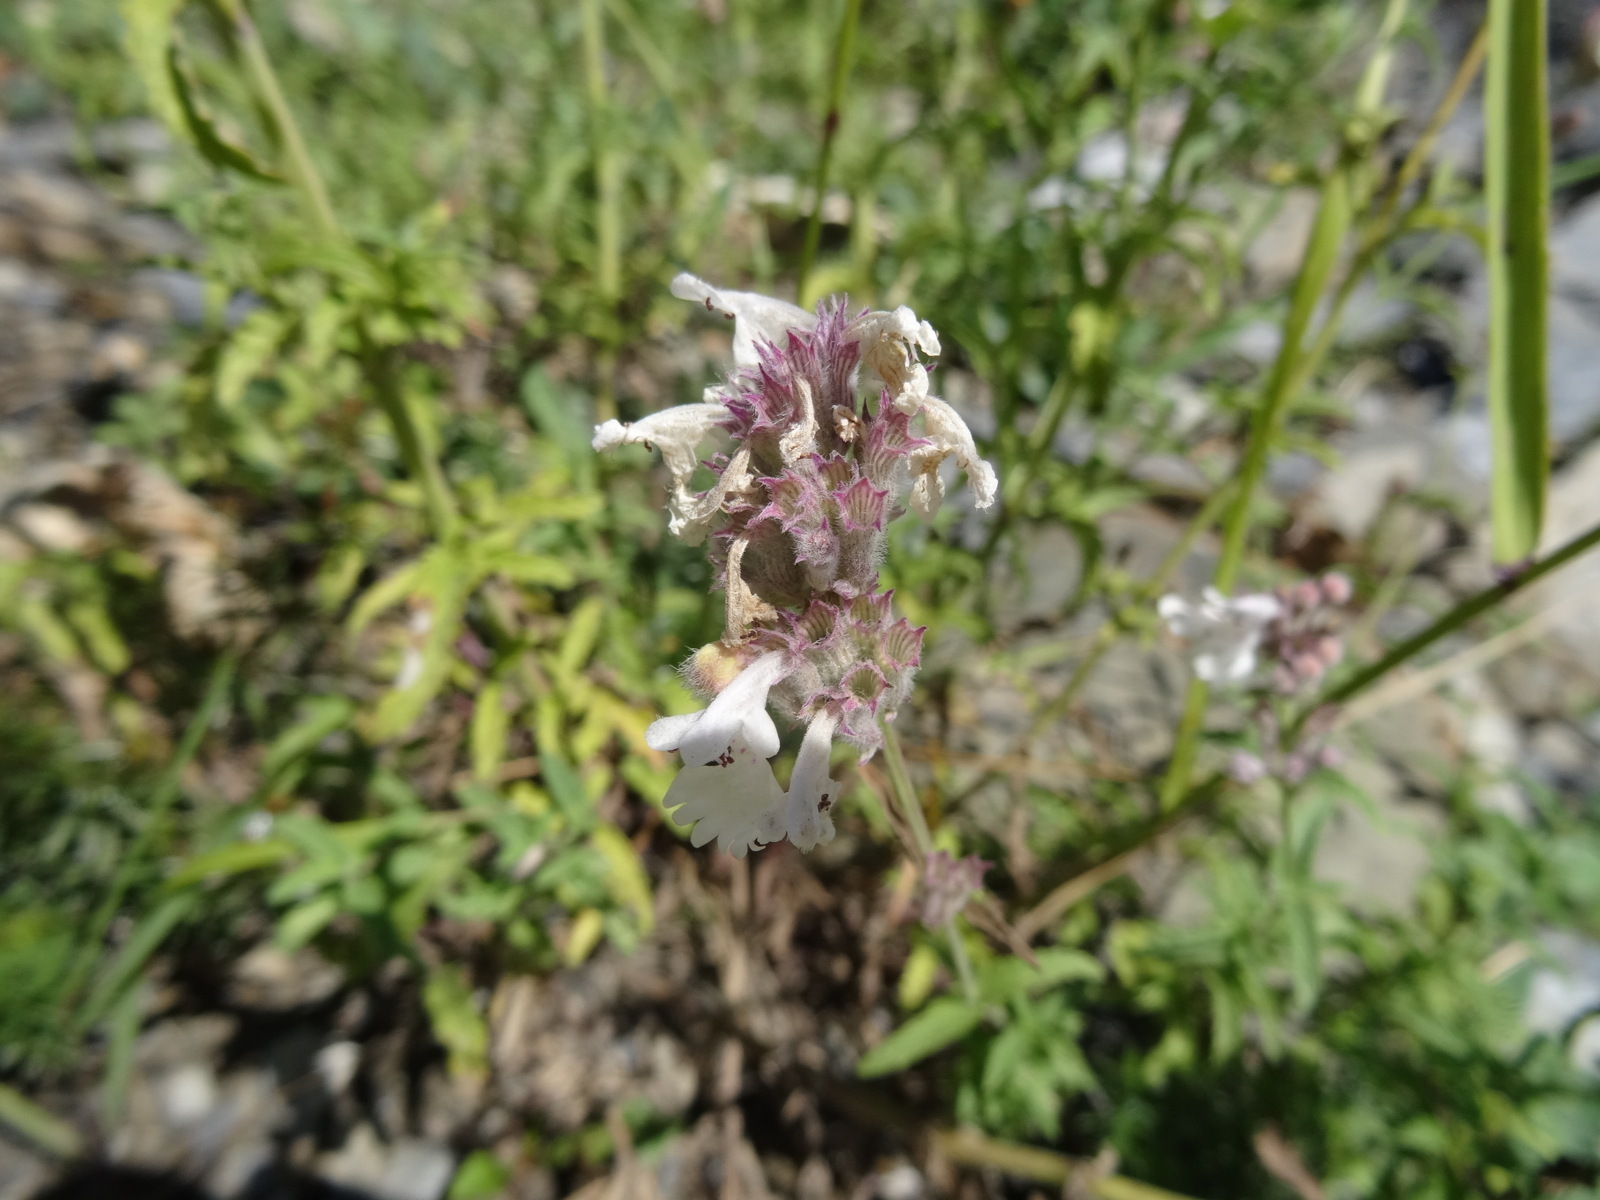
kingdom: Plantae
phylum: Tracheophyta
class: Magnoliopsida
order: Lamiales
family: Lamiaceae
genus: Nepeta
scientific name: Nepeta nepetella
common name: Lesser catmint
